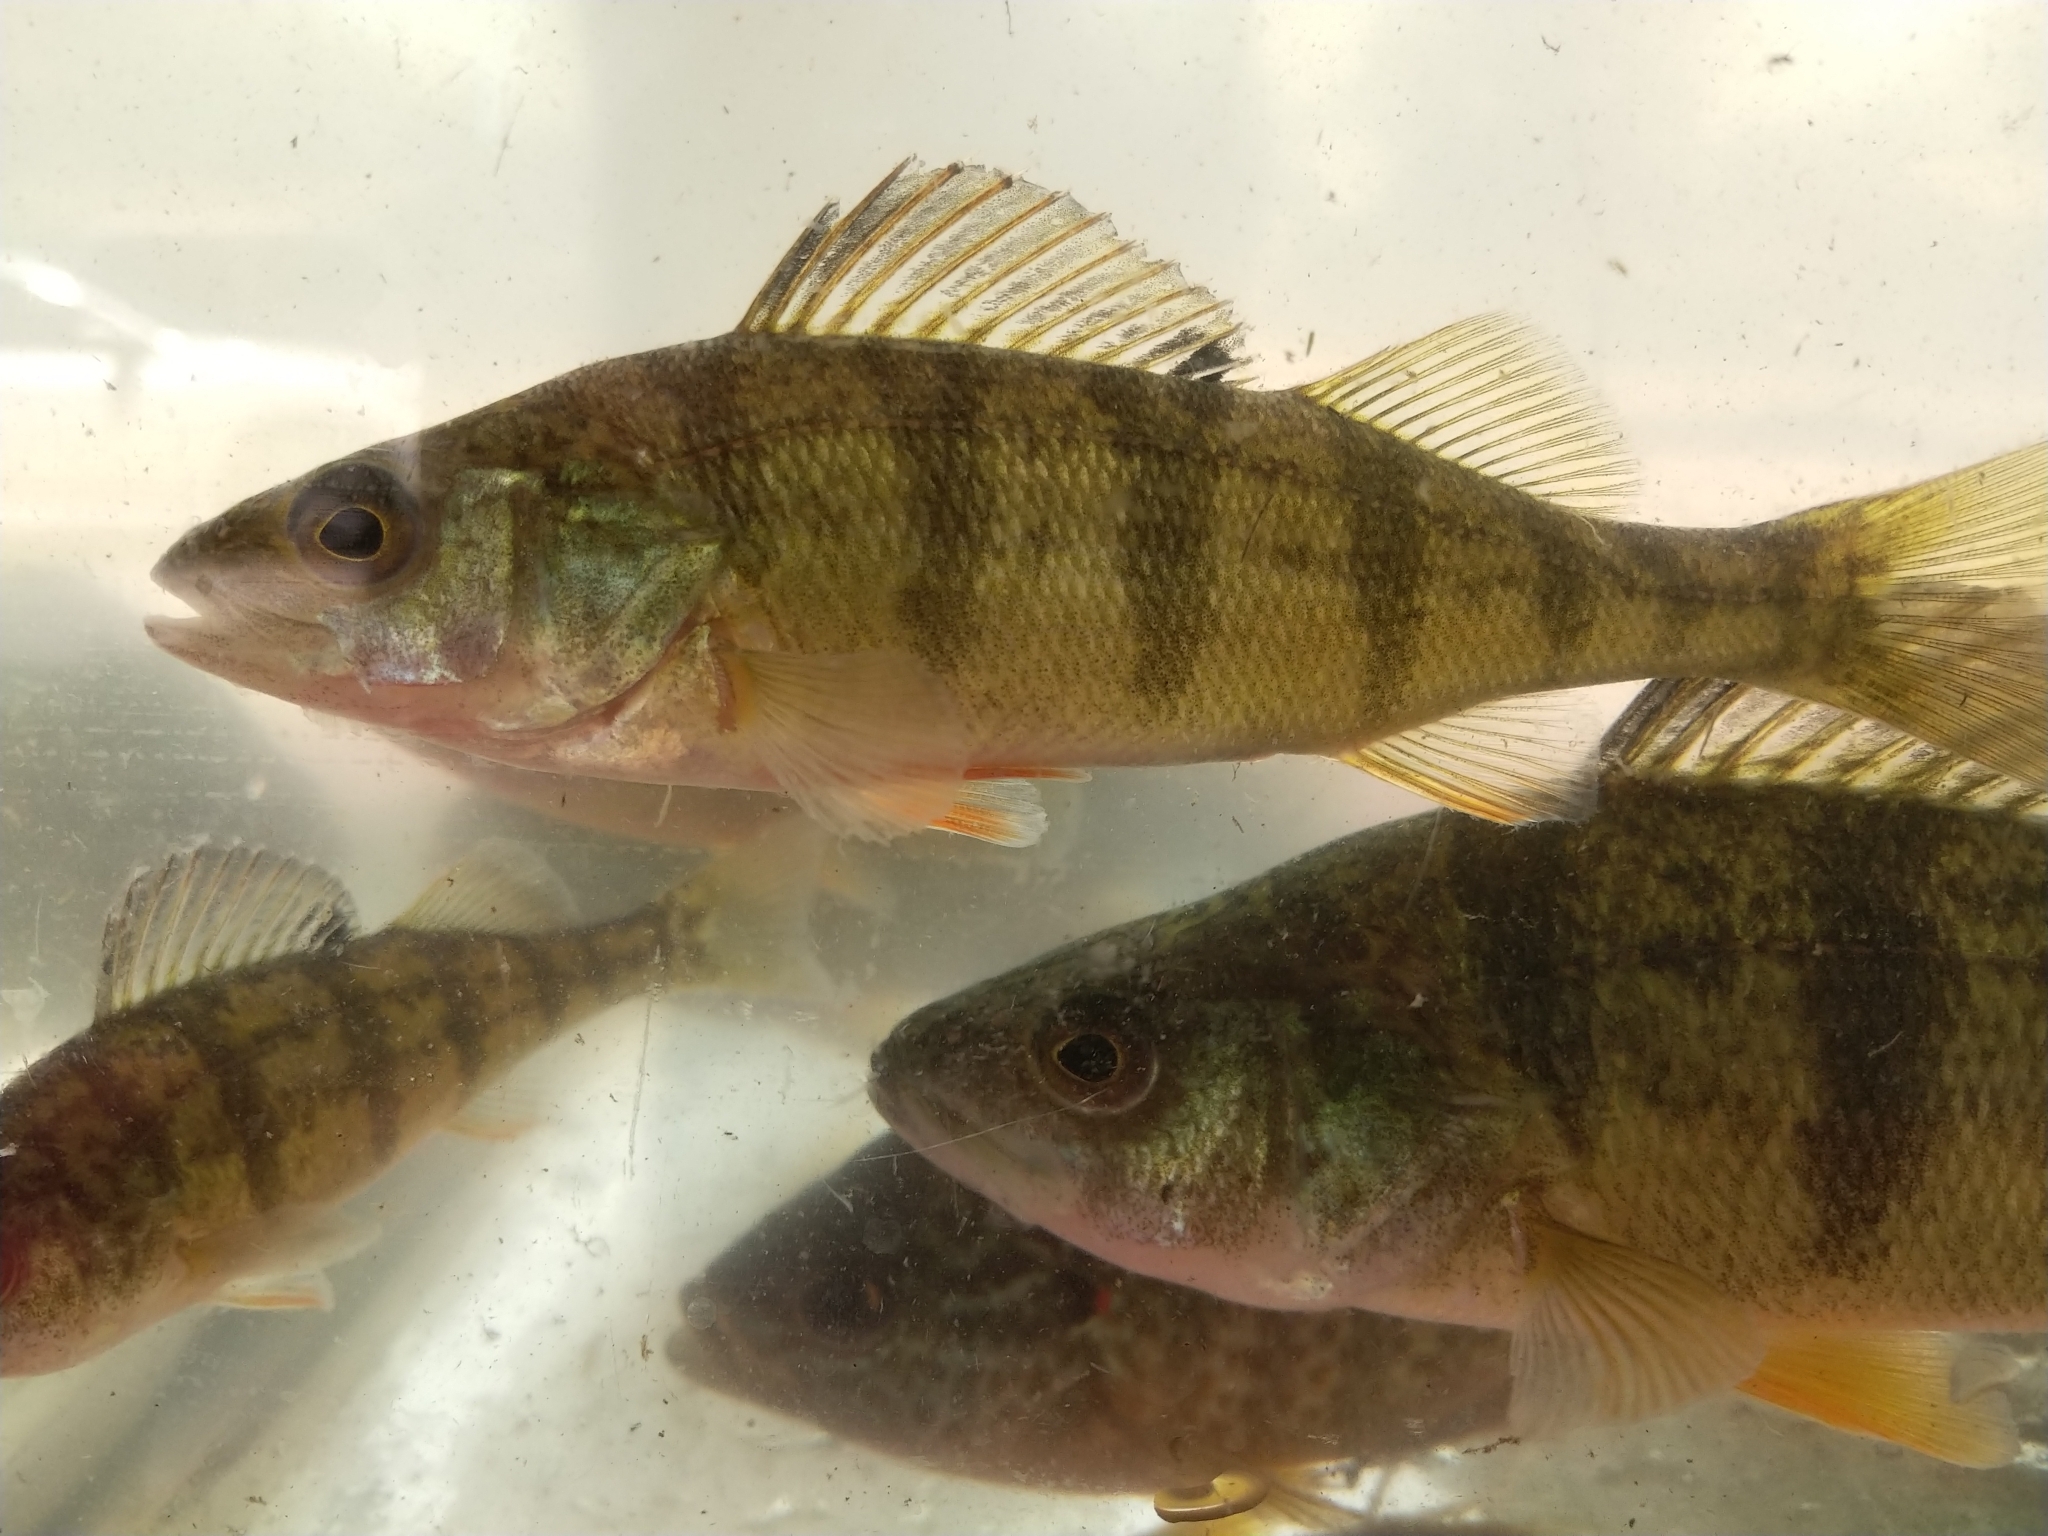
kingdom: Animalia
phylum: Chordata
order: Perciformes
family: Percidae
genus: Perca
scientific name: Perca flavescens
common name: Yellow perch
